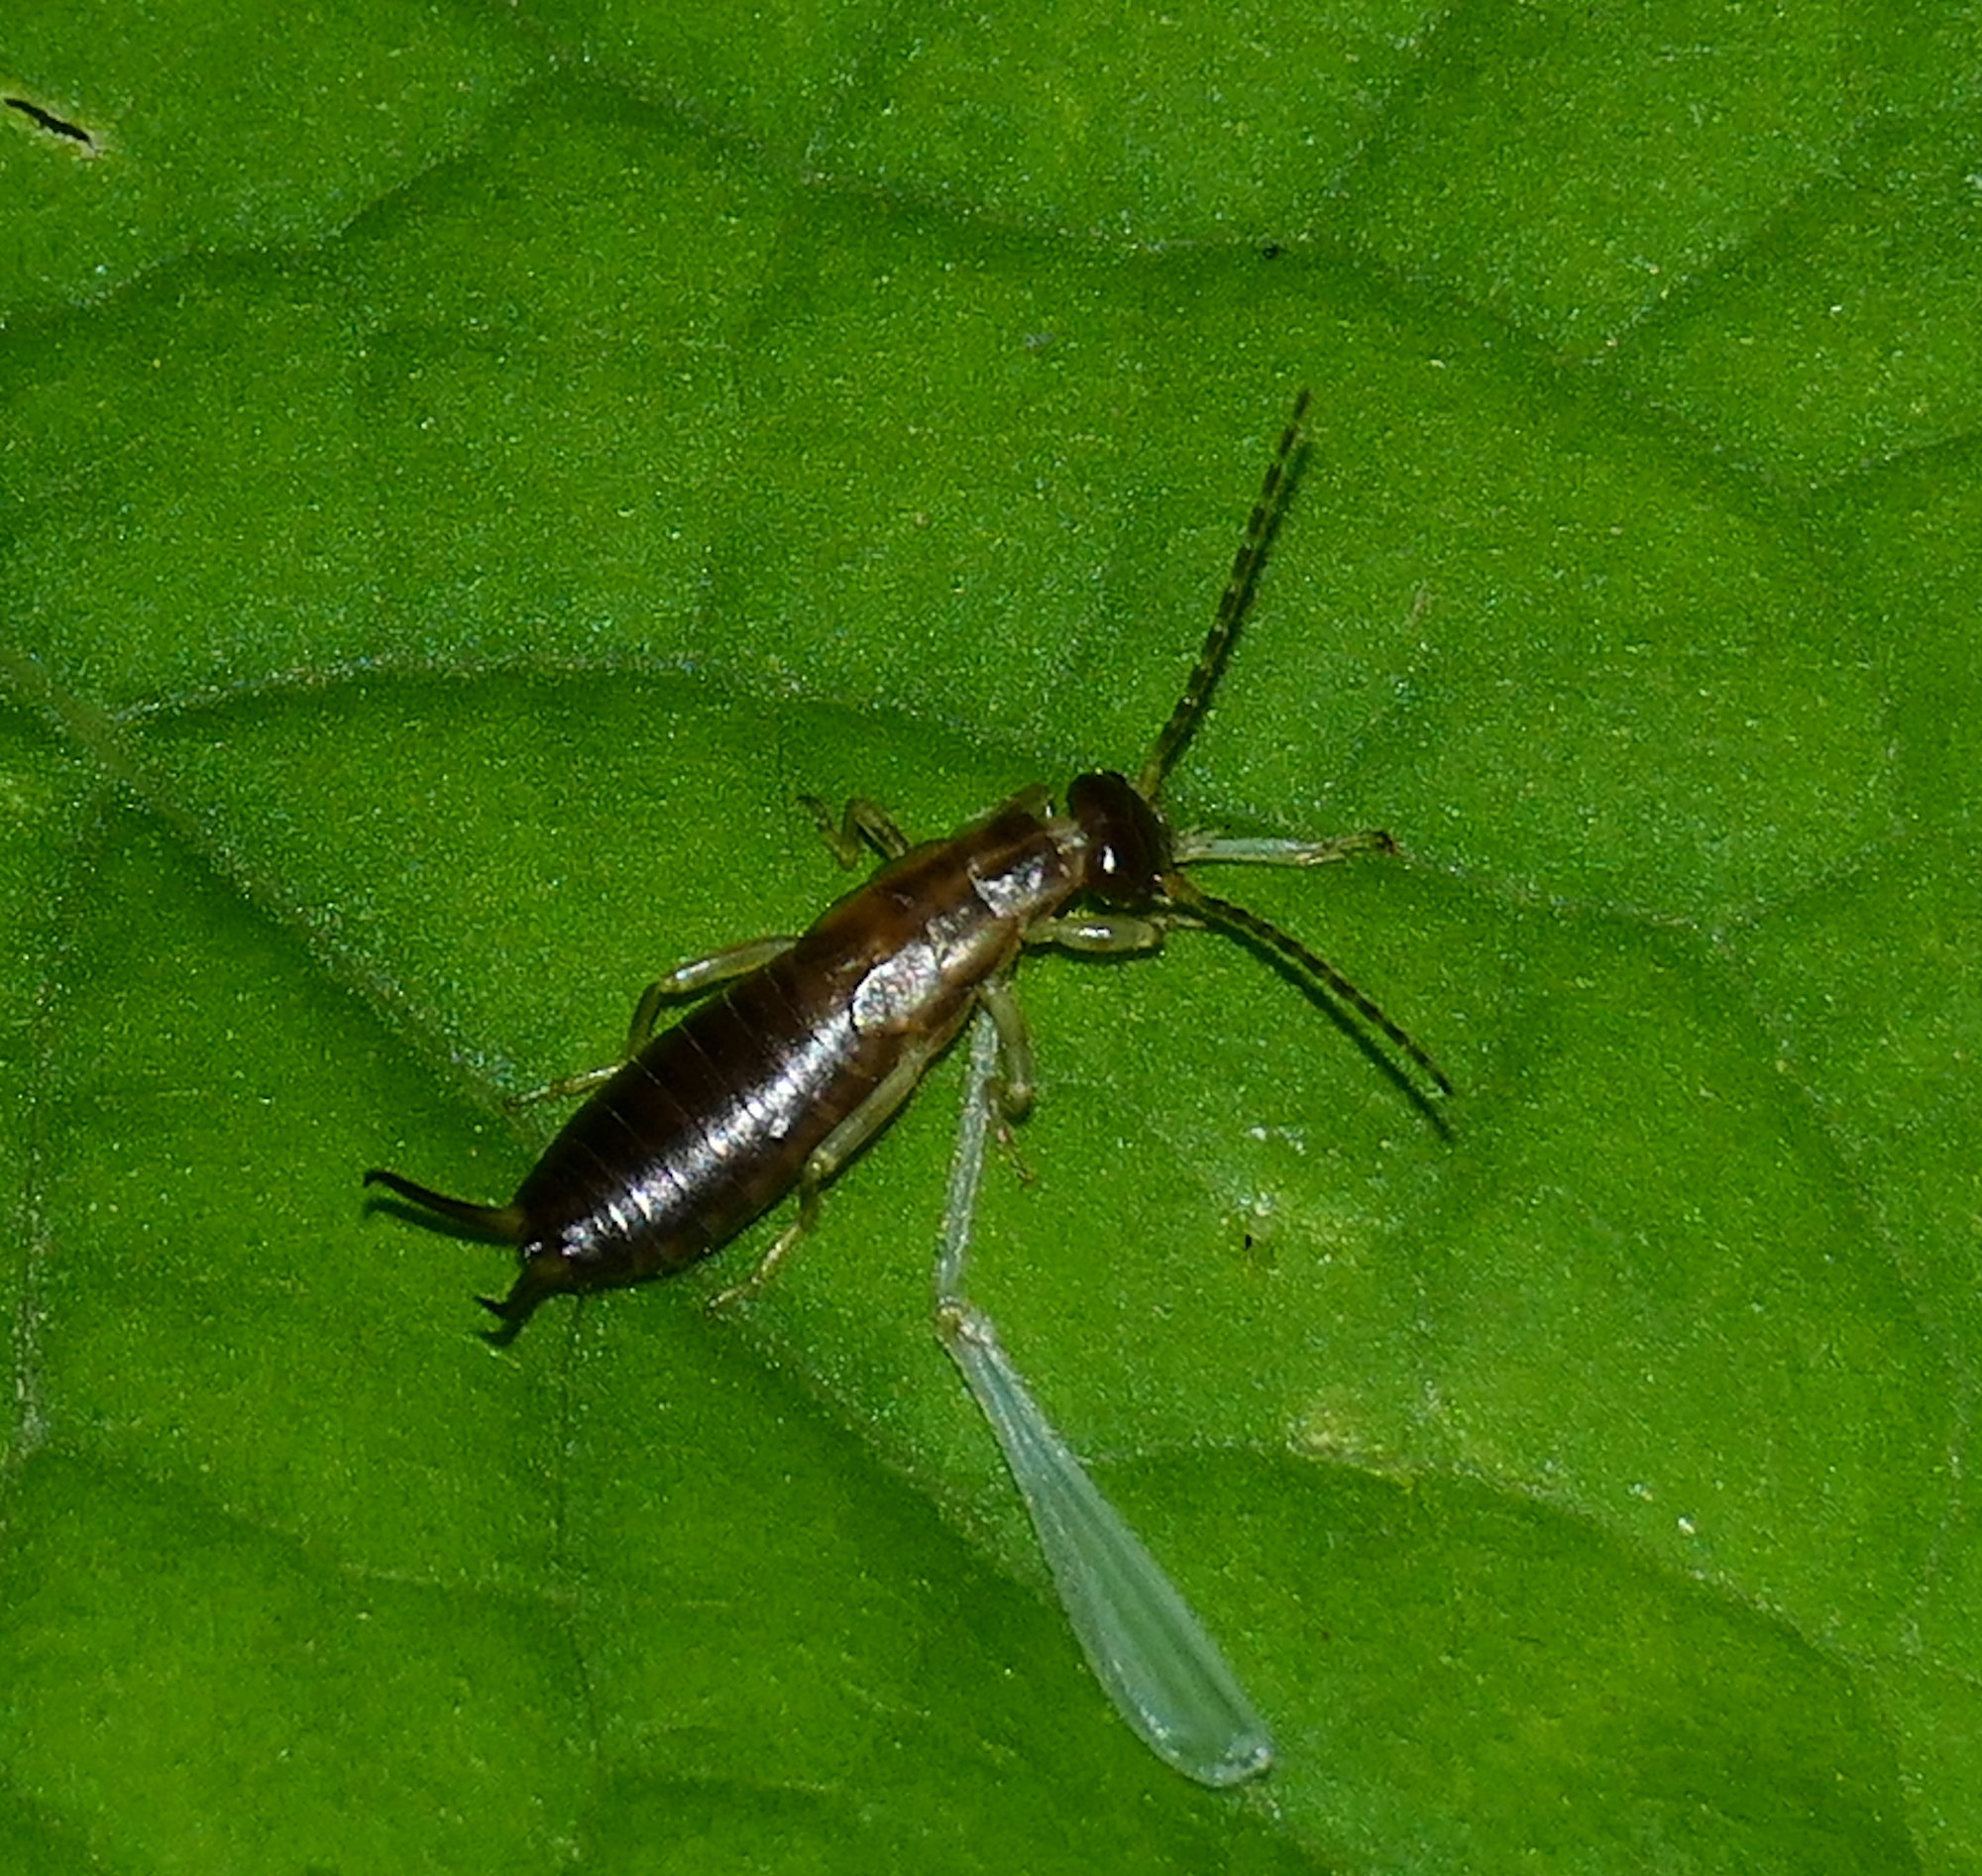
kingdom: Animalia
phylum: Arthropoda
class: Insecta
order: Dermaptera
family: Forficulidae
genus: Forficula
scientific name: Forficula
